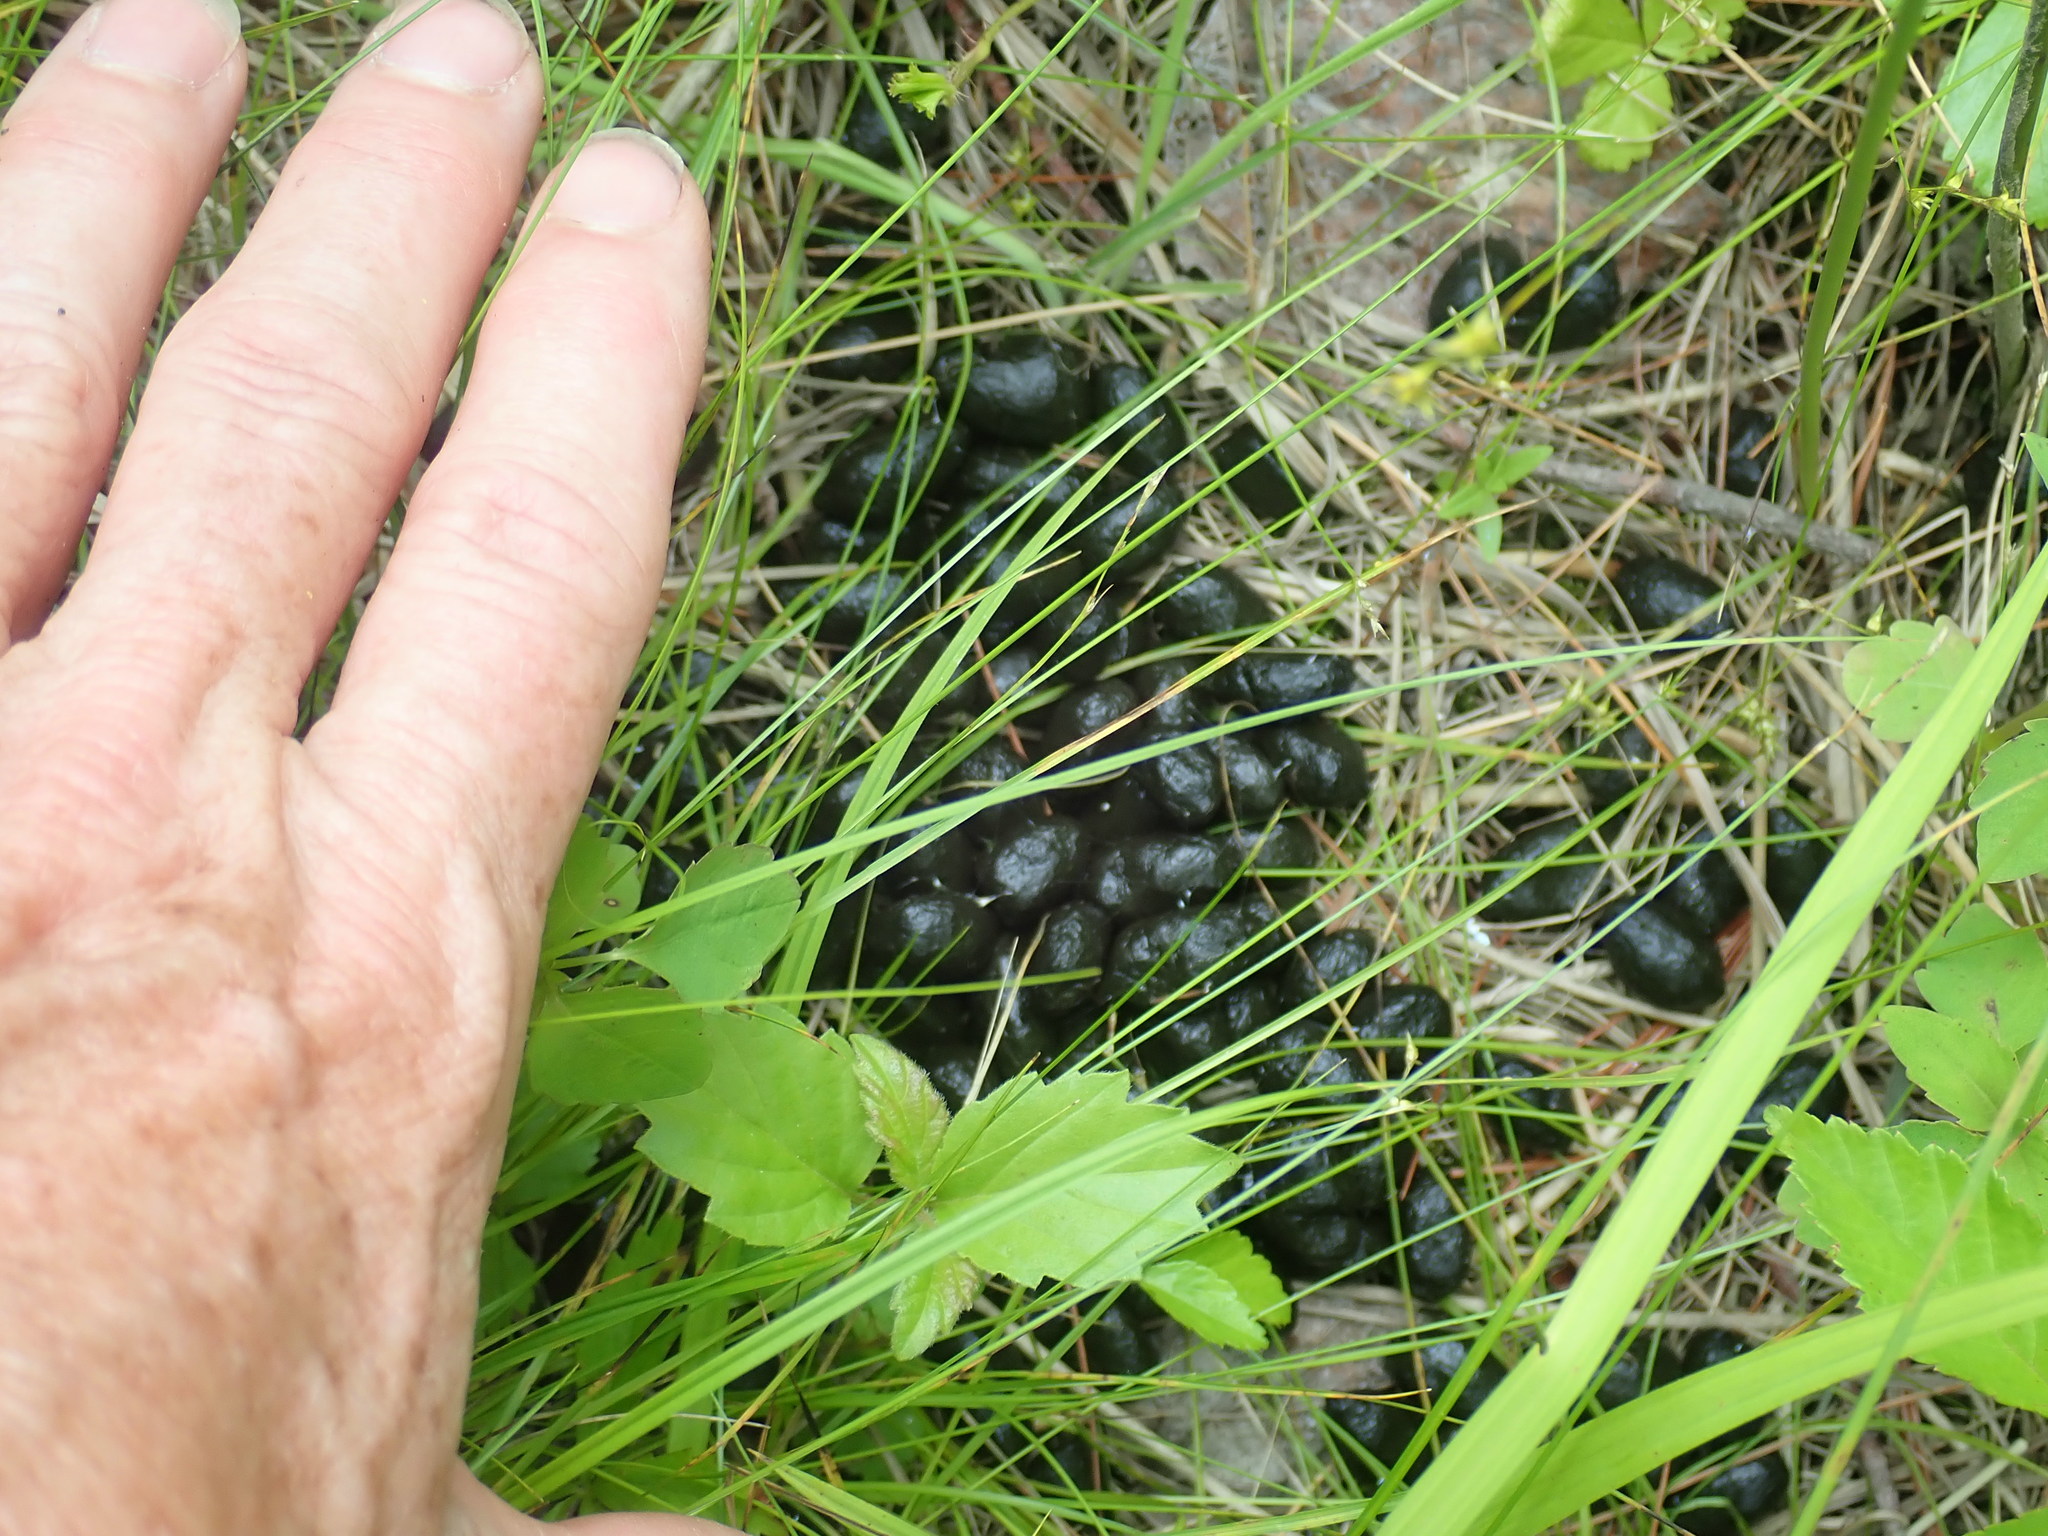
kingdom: Animalia
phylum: Chordata
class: Mammalia
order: Artiodactyla
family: Cervidae
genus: Odocoileus
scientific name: Odocoileus virginianus
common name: White-tailed deer
